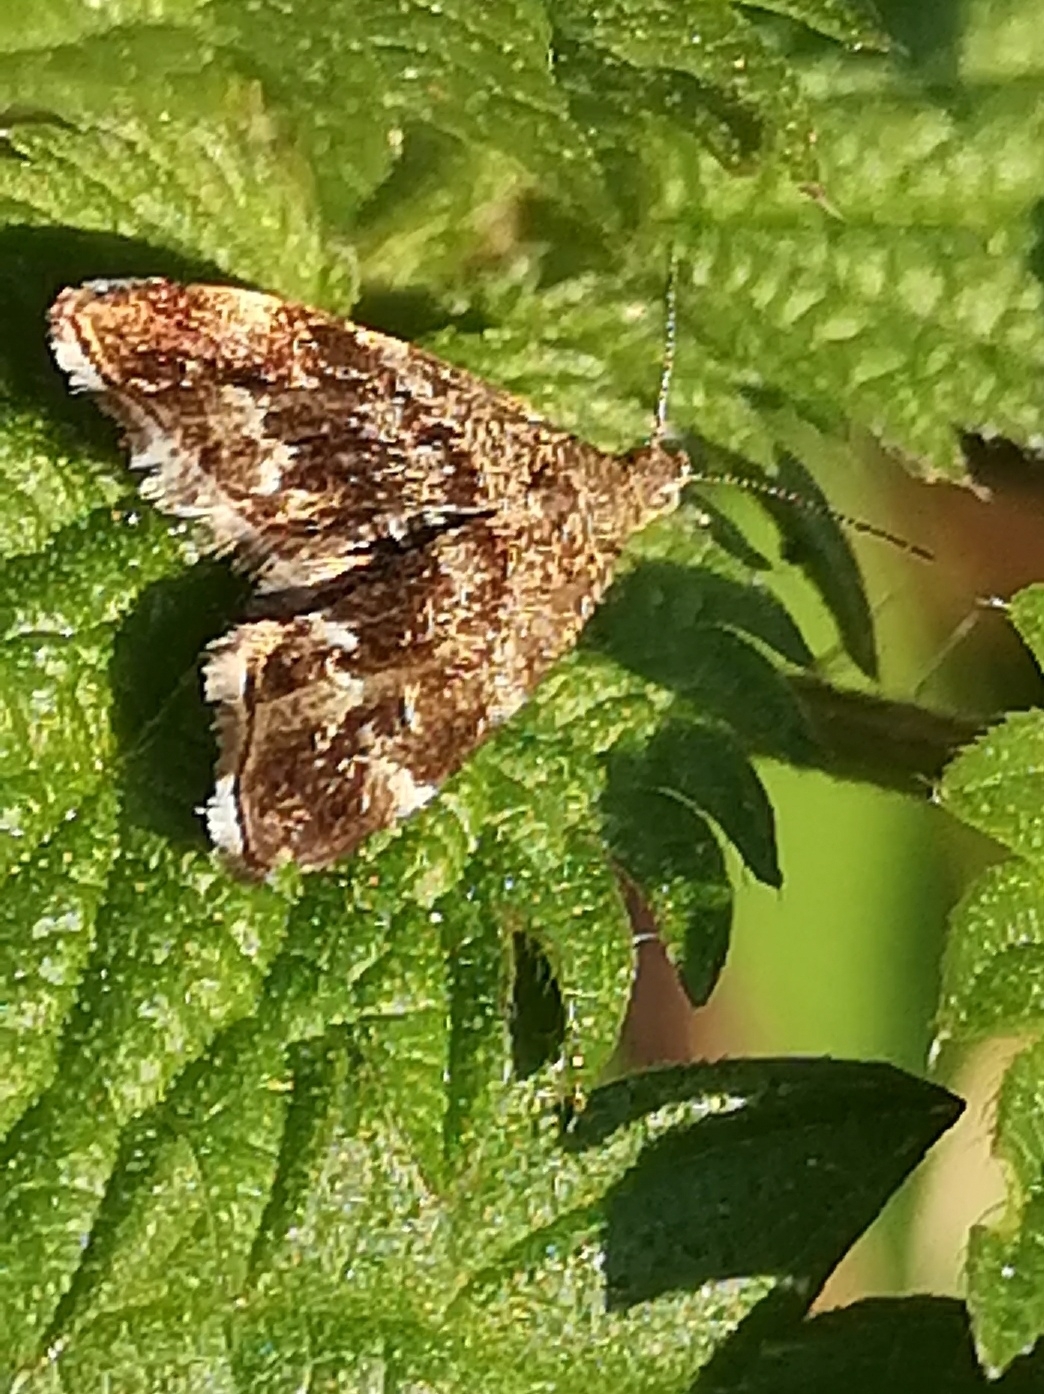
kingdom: Animalia
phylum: Arthropoda
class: Insecta
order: Lepidoptera
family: Choreutidae
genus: Anthophila
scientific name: Anthophila fabriciana
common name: Nettle-tap
